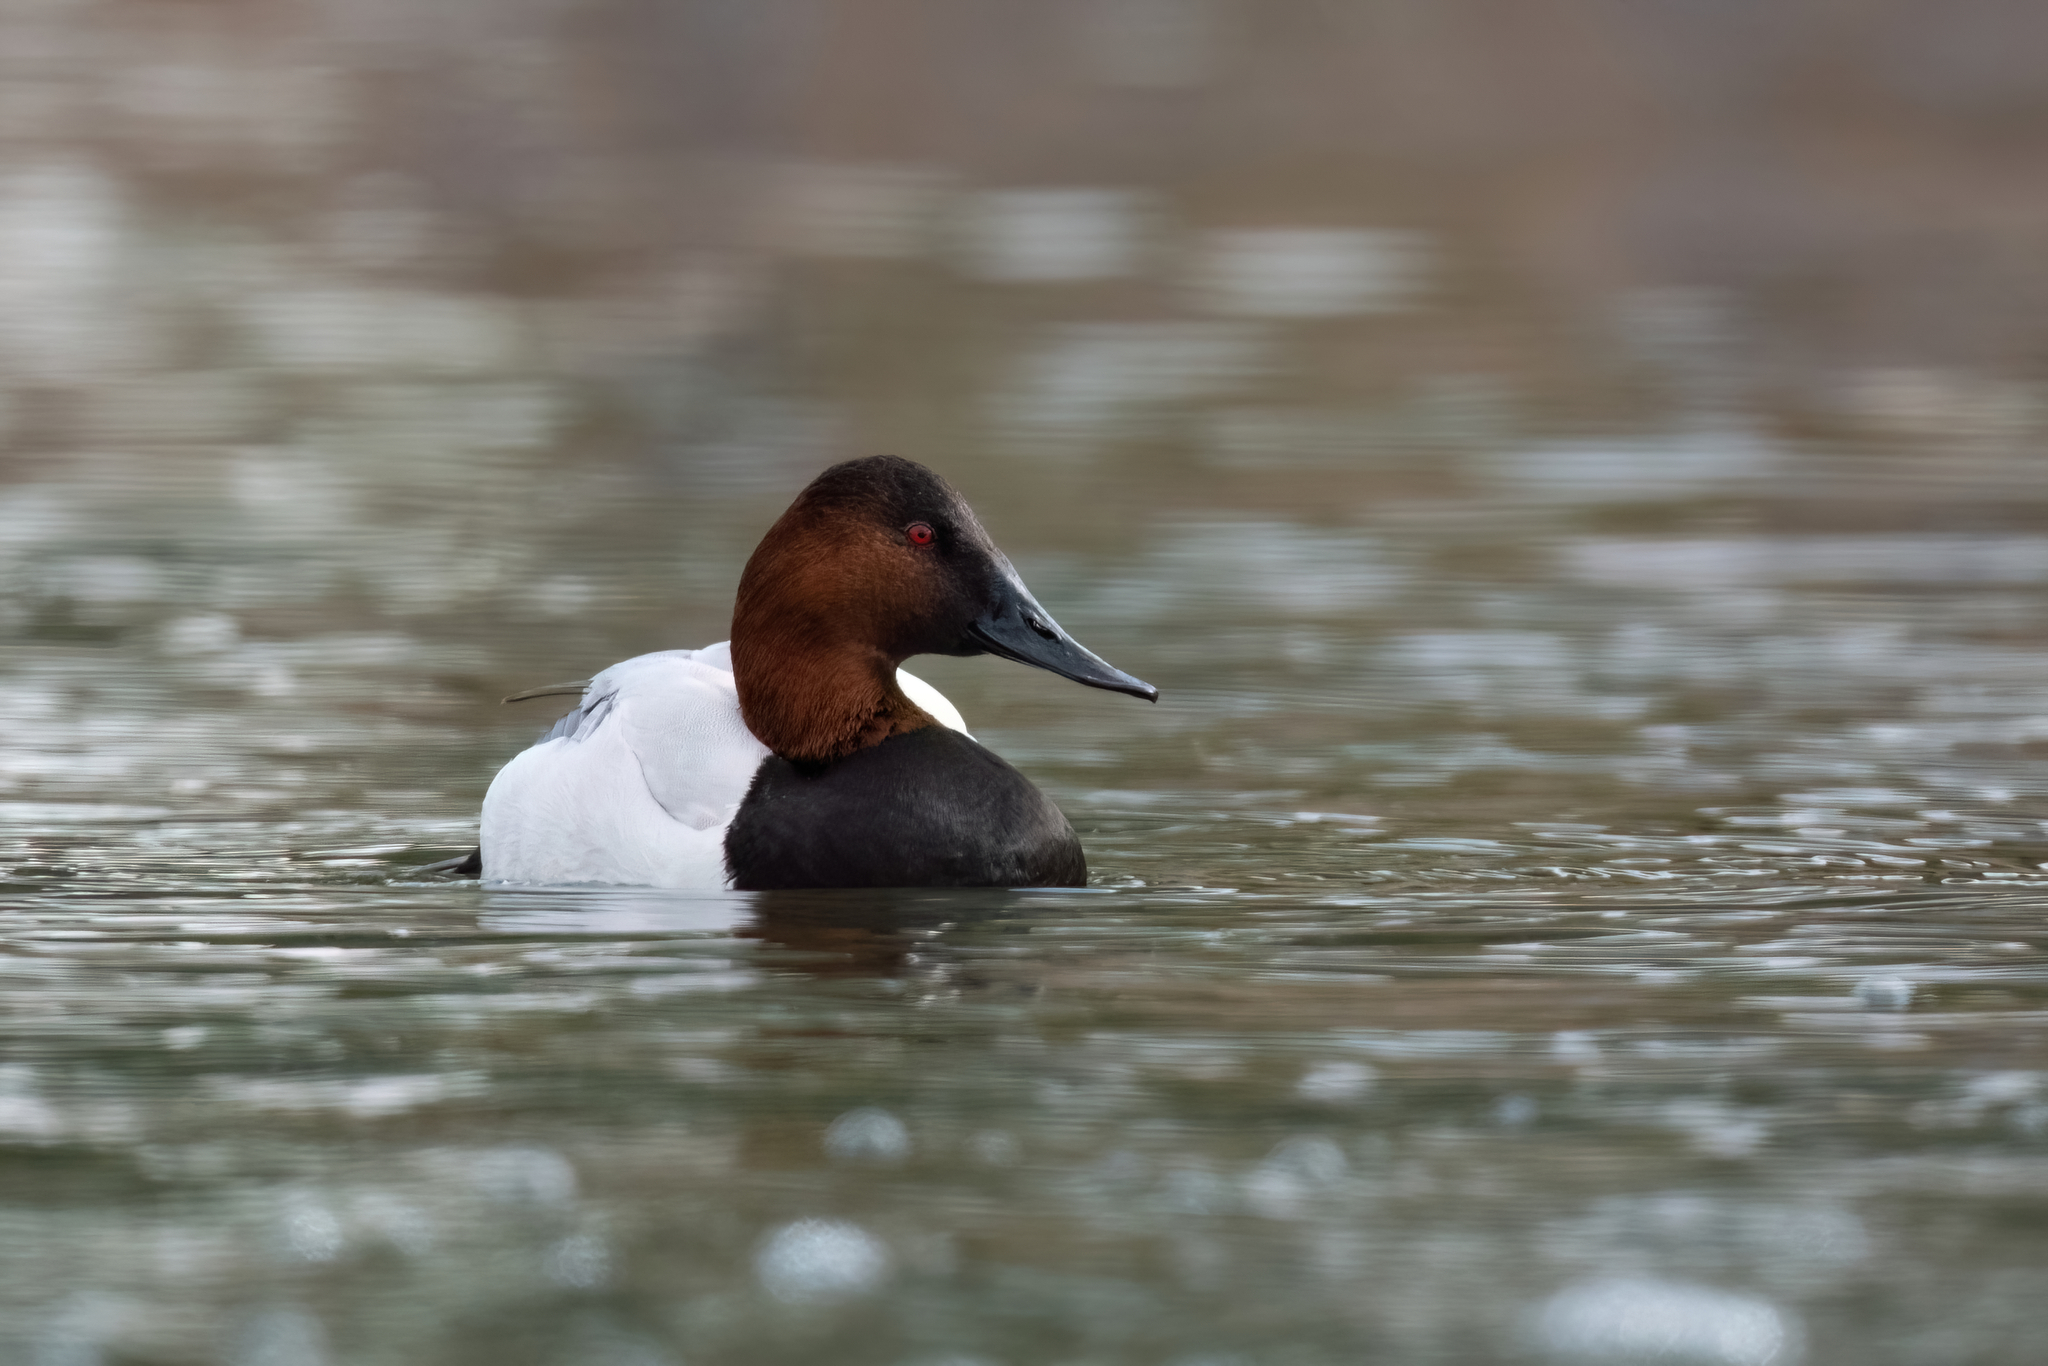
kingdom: Animalia
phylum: Chordata
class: Aves
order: Anseriformes
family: Anatidae
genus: Aythya
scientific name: Aythya valisineria
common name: Canvasback
